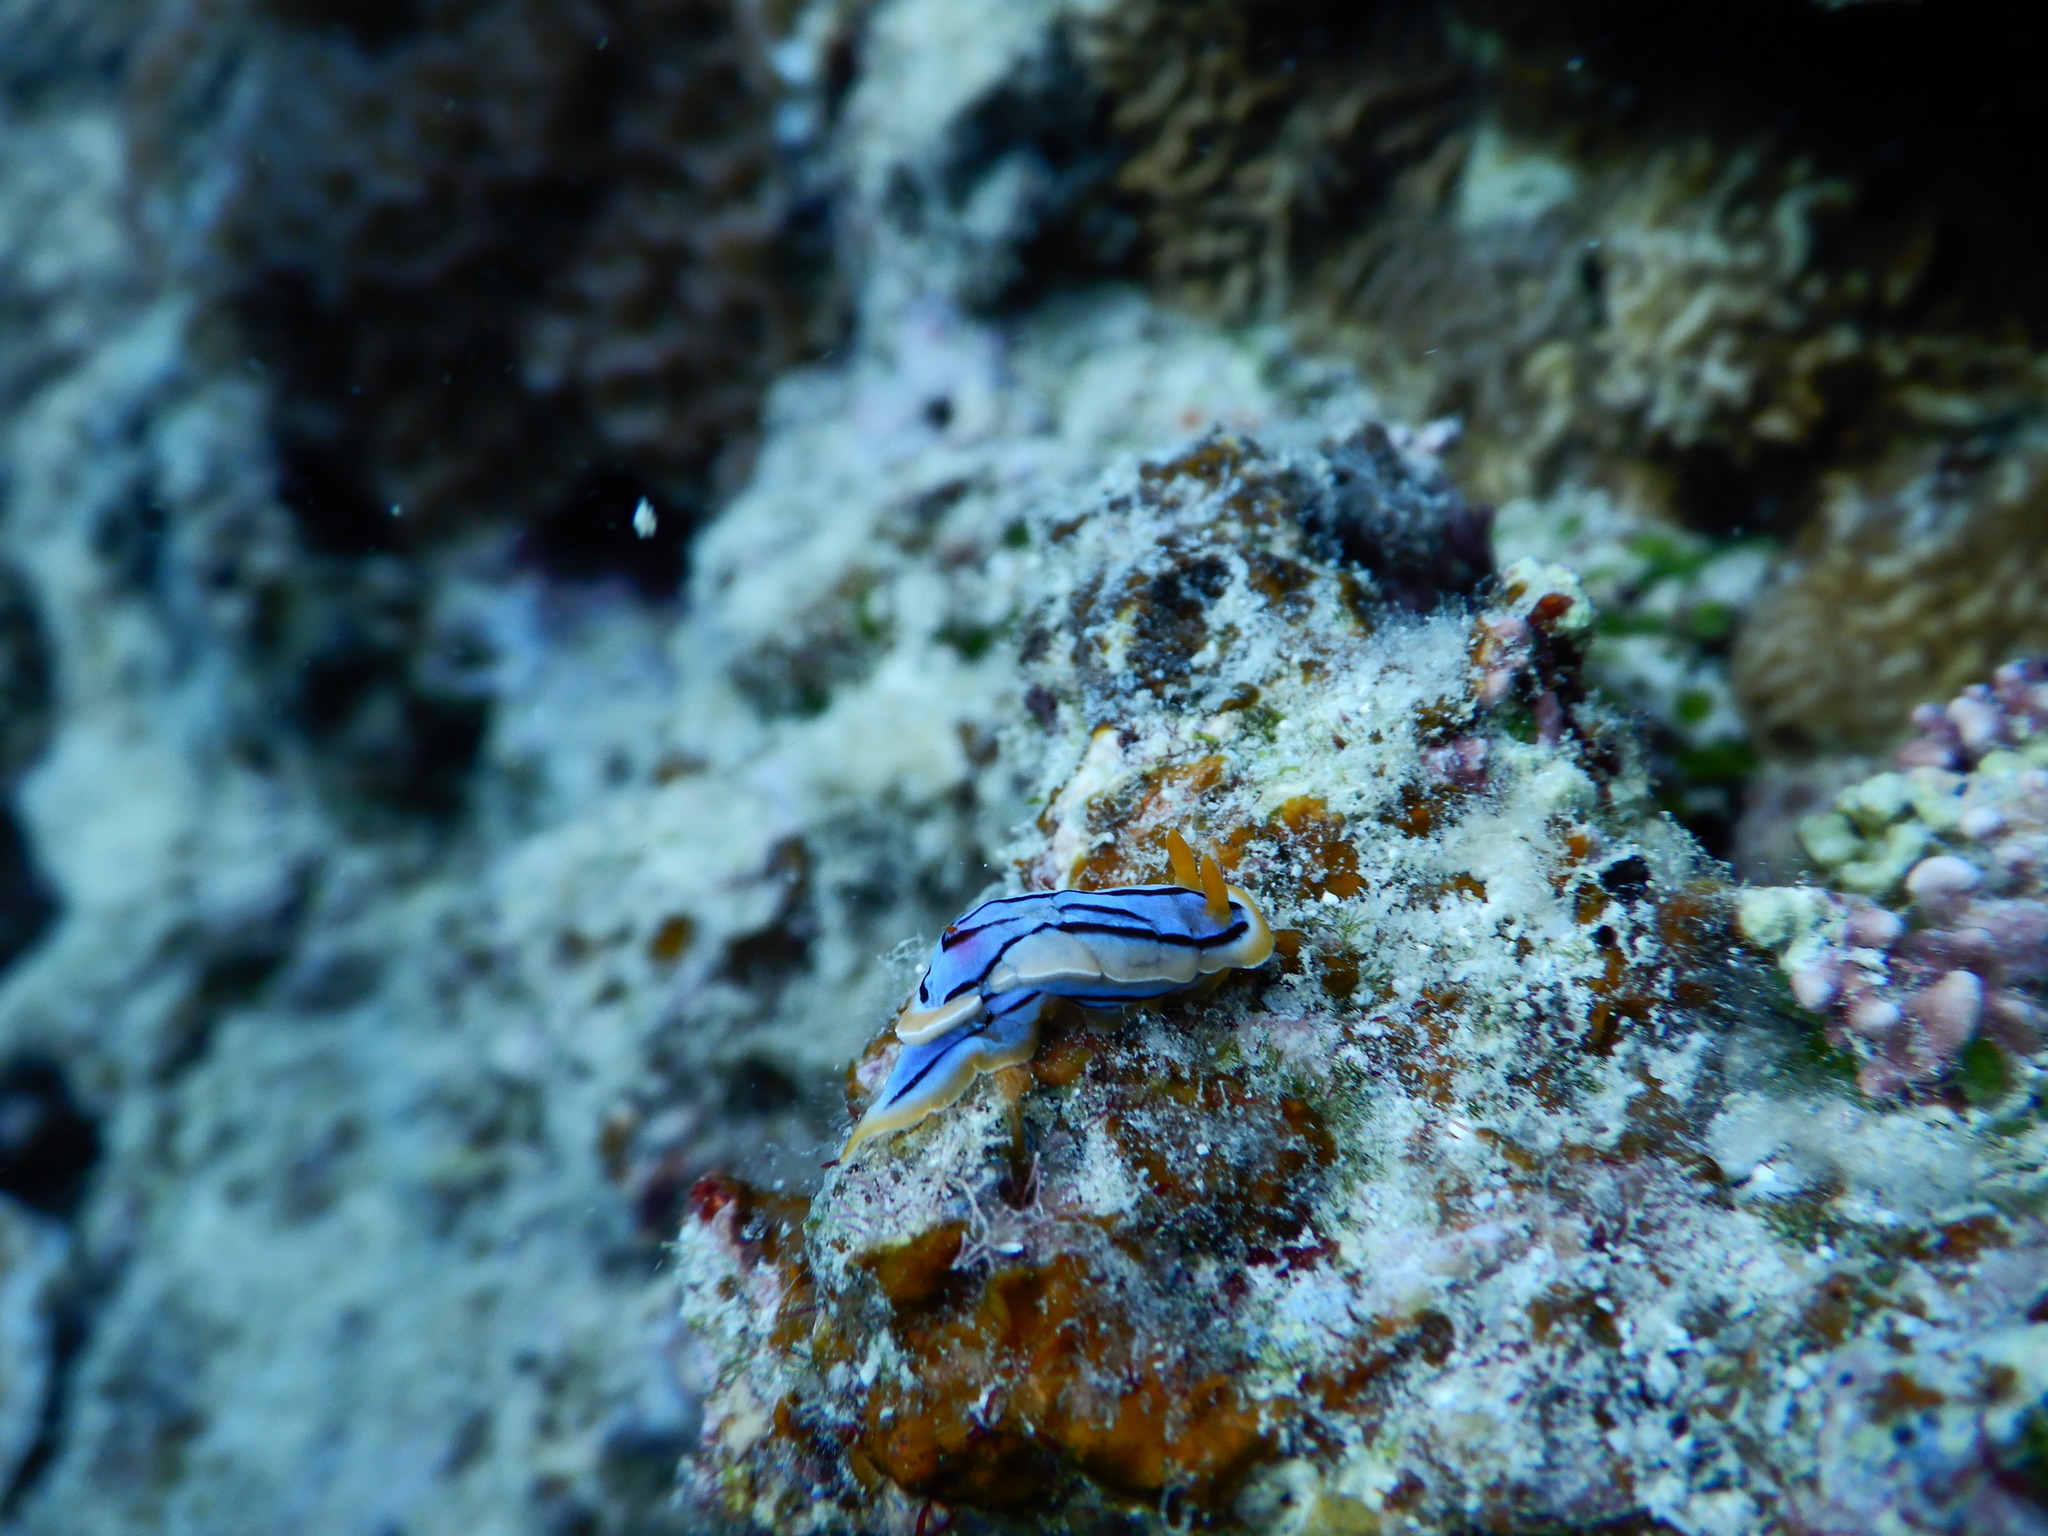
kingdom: Animalia
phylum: Mollusca
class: Gastropoda
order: Nudibranchia
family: Chromodorididae
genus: Chromodoris
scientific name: Chromodoris elisabethina
